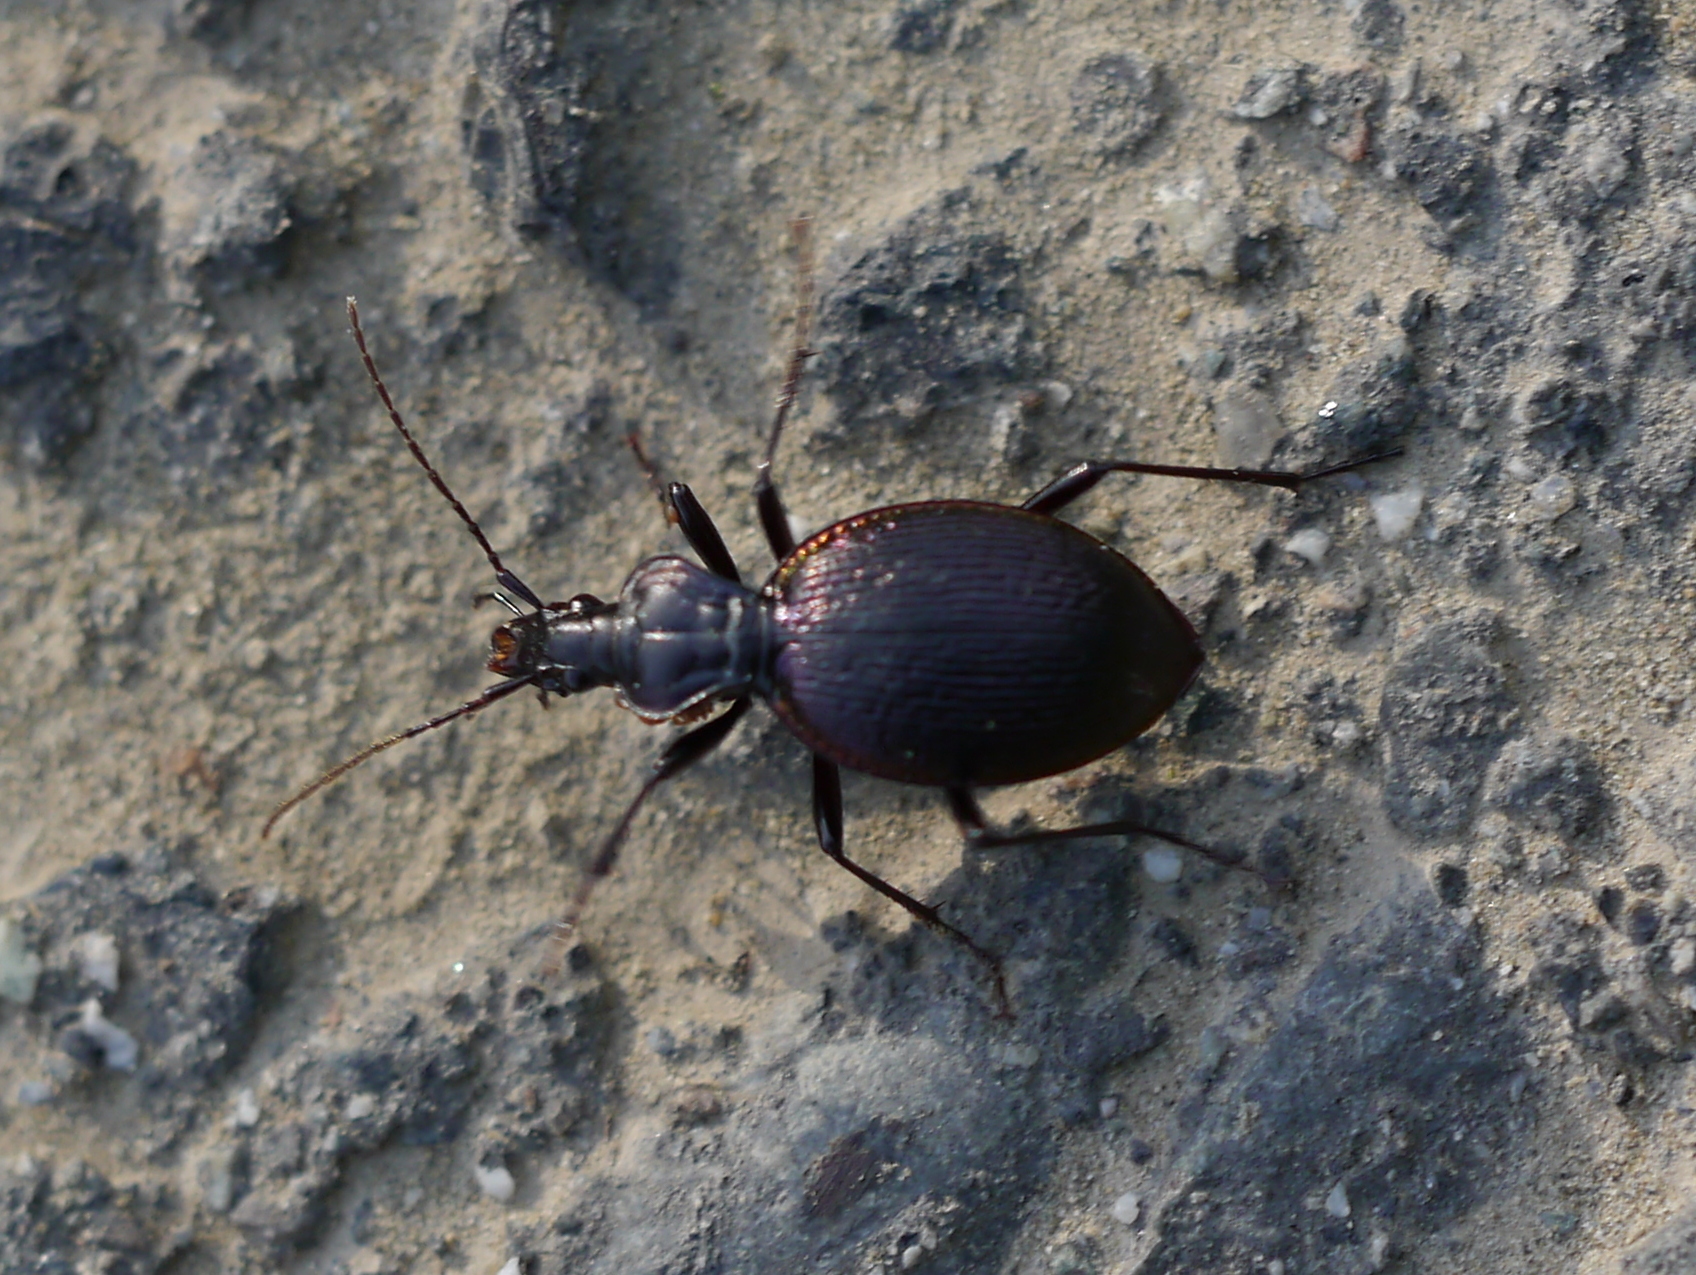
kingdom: Animalia
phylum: Arthropoda
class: Insecta
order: Coleoptera
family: Carabidae
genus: Scaphinotus
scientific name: Scaphinotus marginatus
